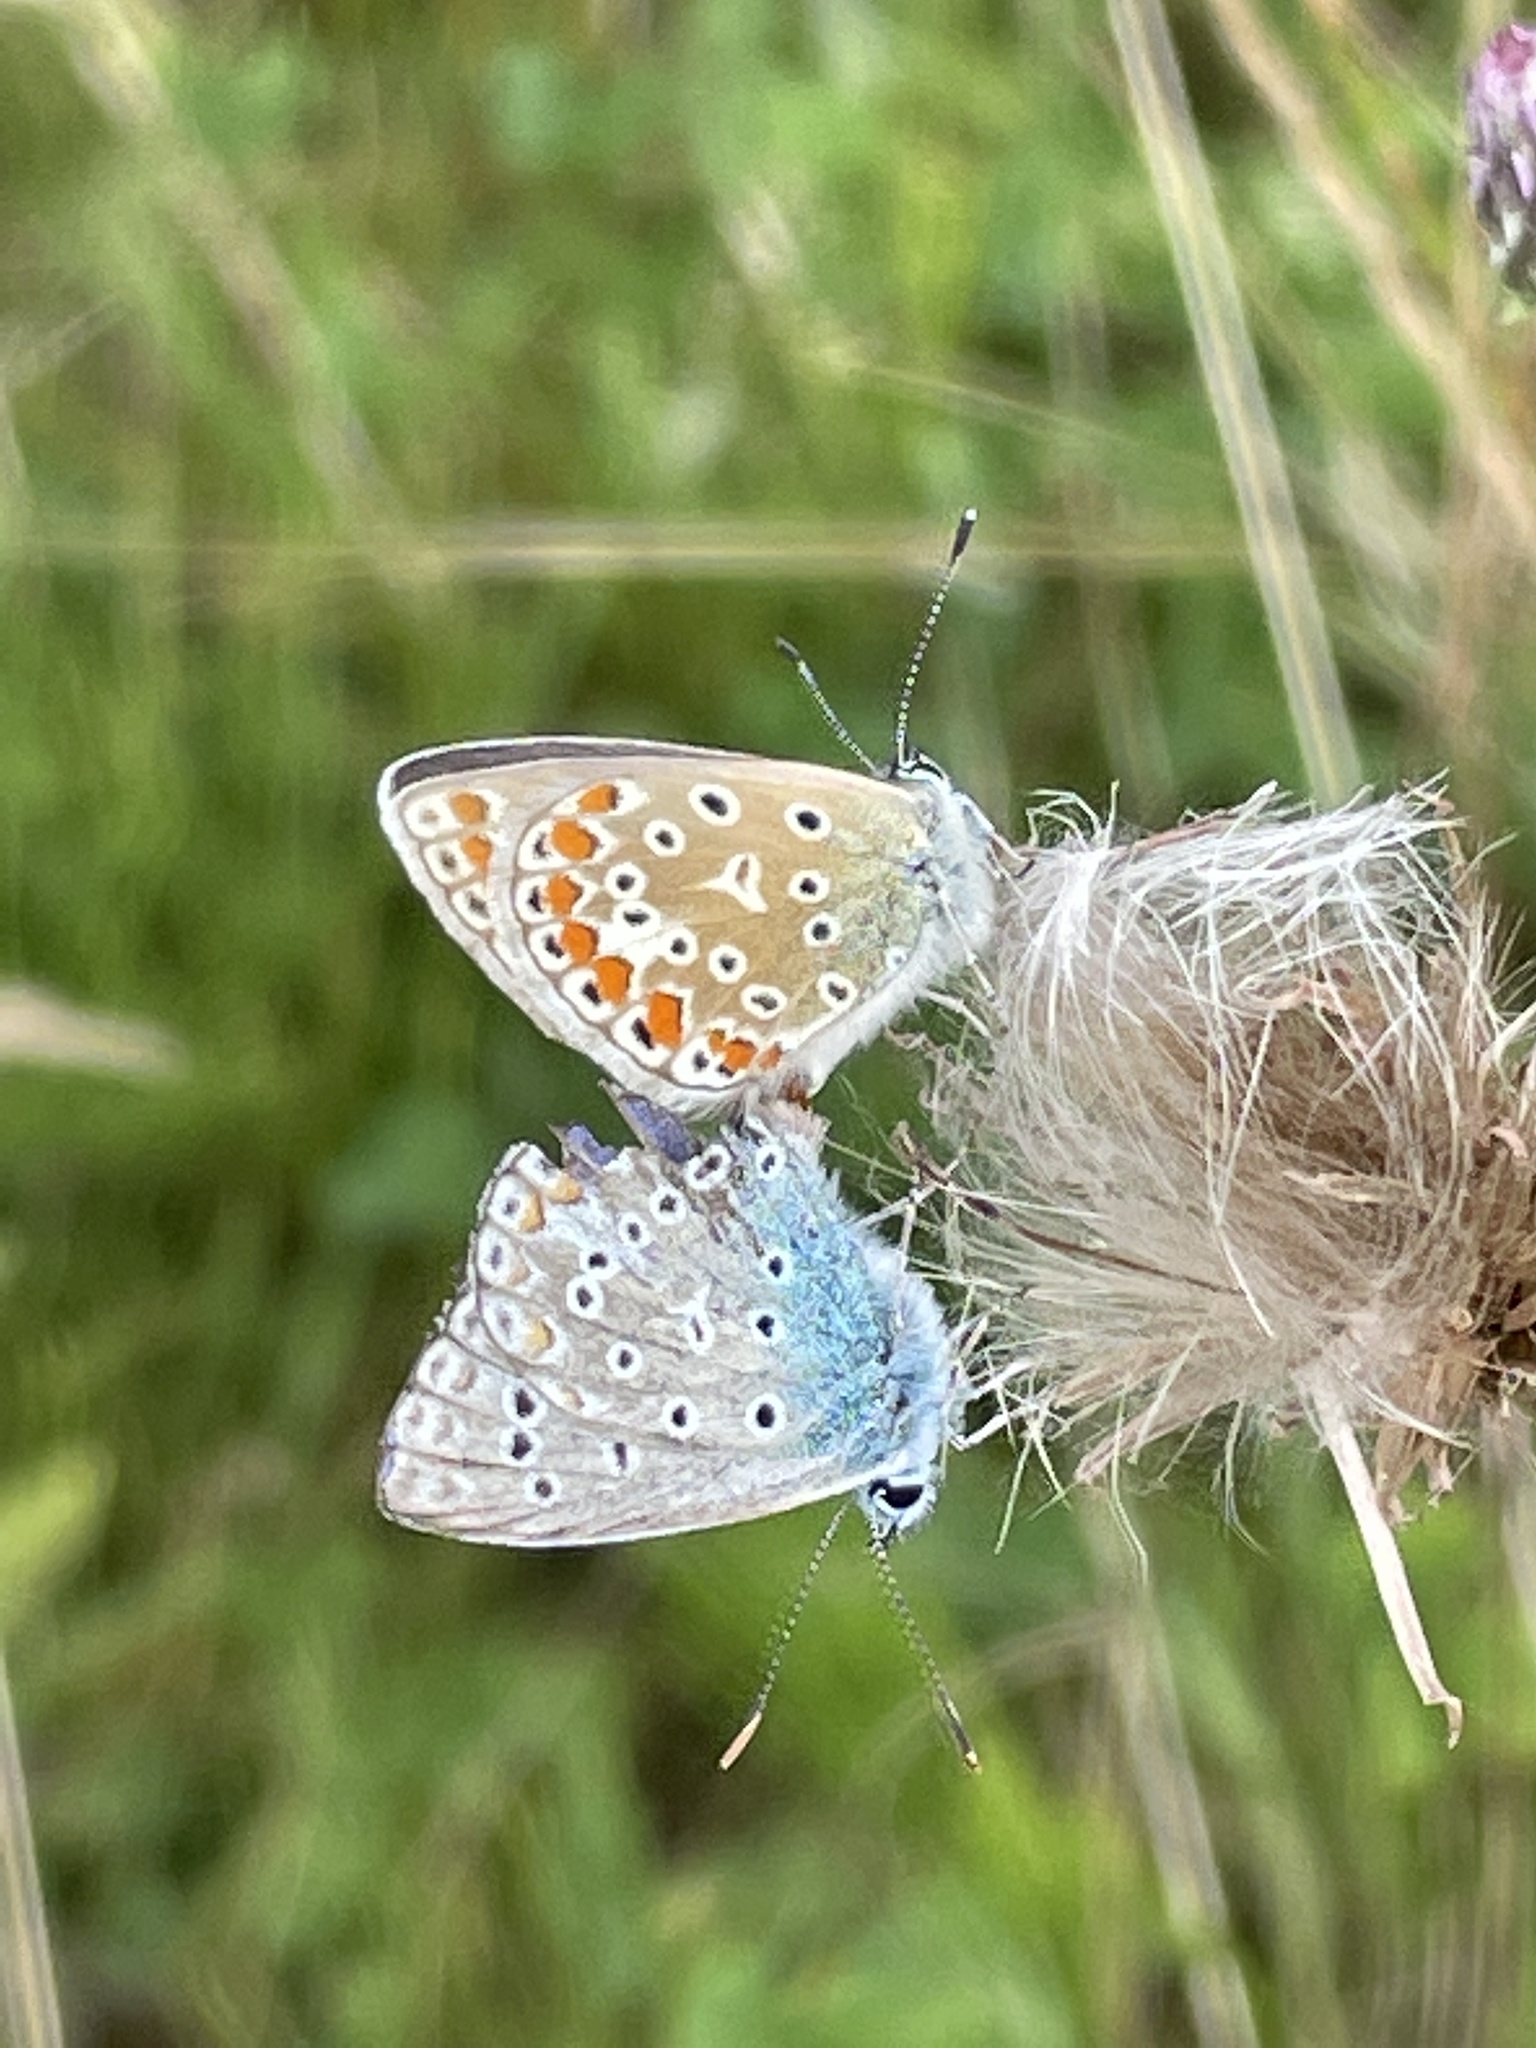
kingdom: Animalia
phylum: Arthropoda
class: Insecta
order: Lepidoptera
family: Lycaenidae
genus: Polyommatus
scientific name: Polyommatus icarus
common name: Common blue
